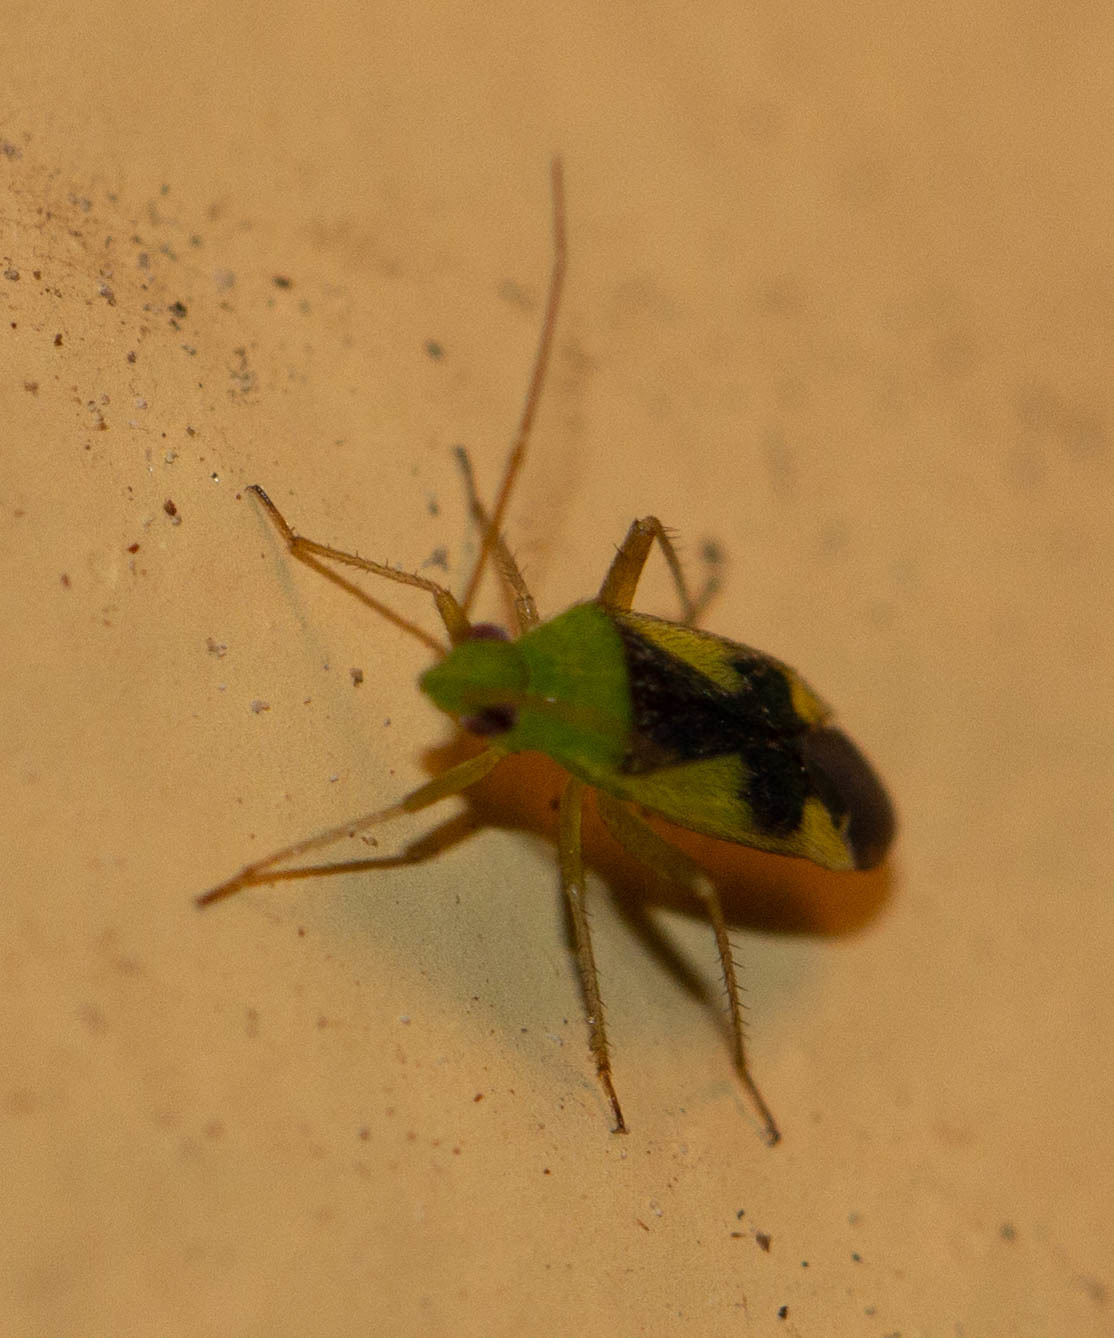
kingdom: Animalia
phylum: Arthropoda
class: Insecta
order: Hemiptera
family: Miridae
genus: Reuteroscopus
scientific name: Reuteroscopus ornatus
